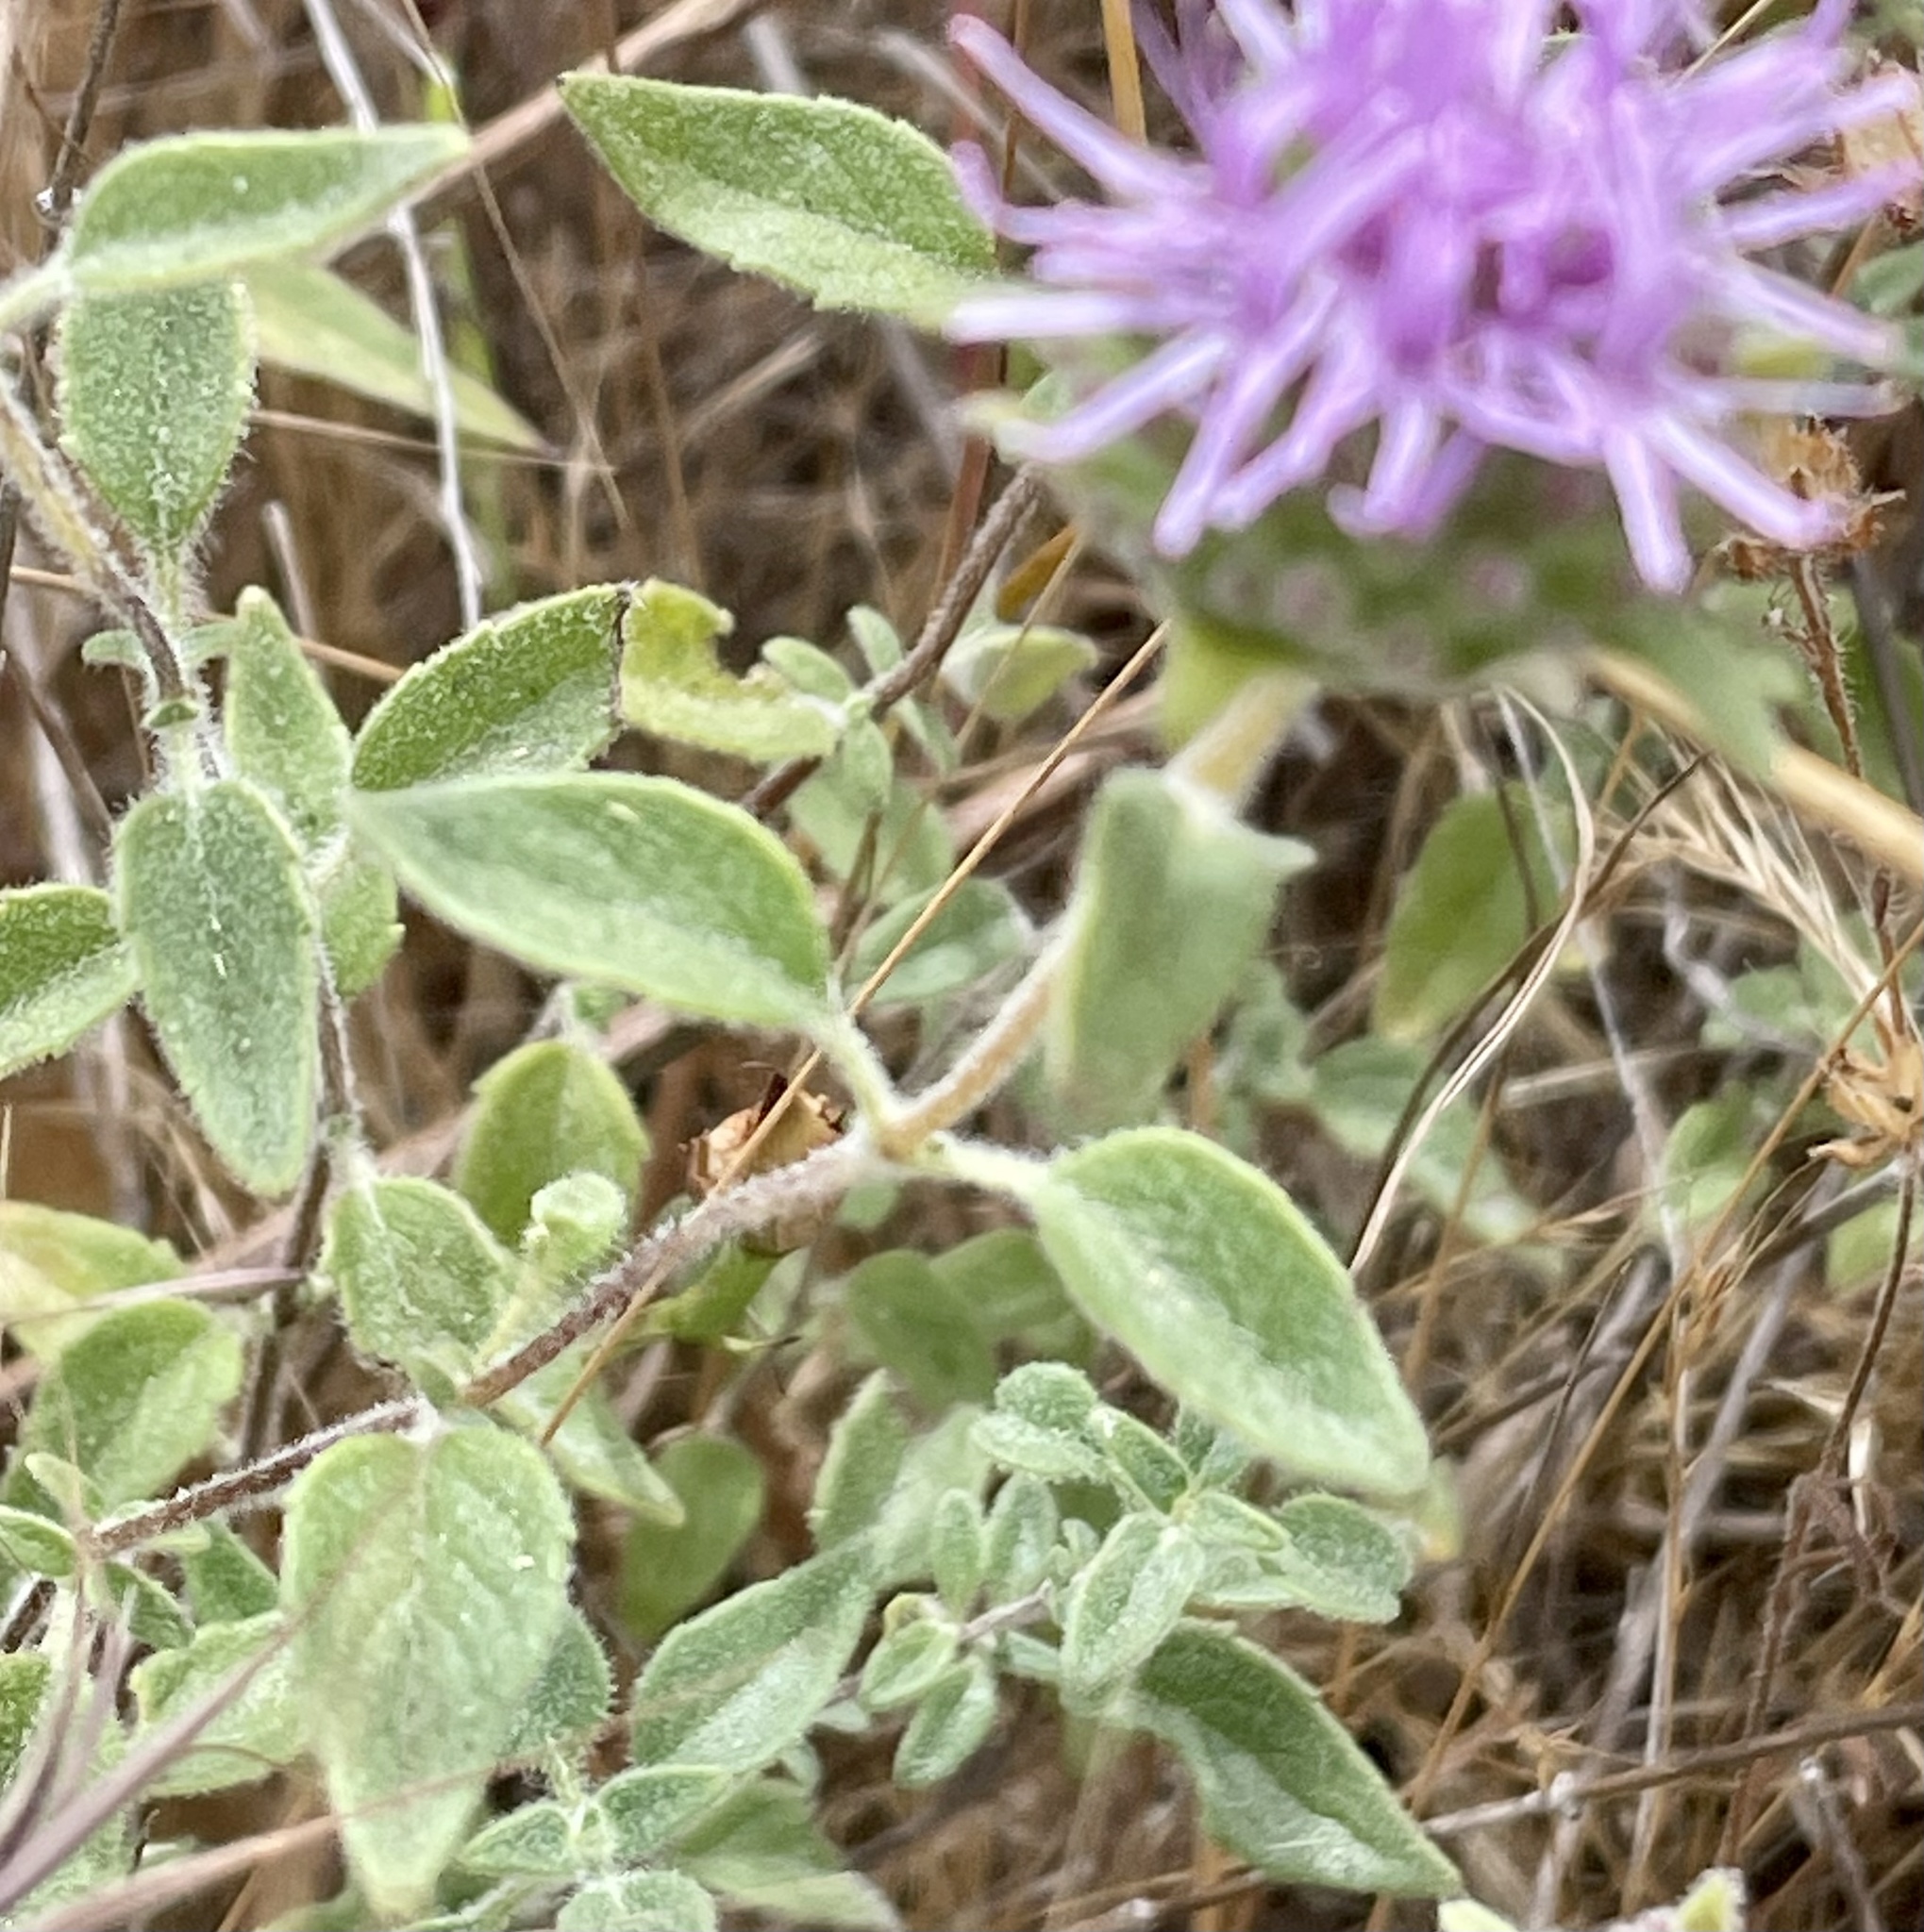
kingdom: Plantae
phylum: Tracheophyta
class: Magnoliopsida
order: Lamiales
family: Lamiaceae
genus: Monardella
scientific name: Monardella odoratissima
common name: Pacific monardella
